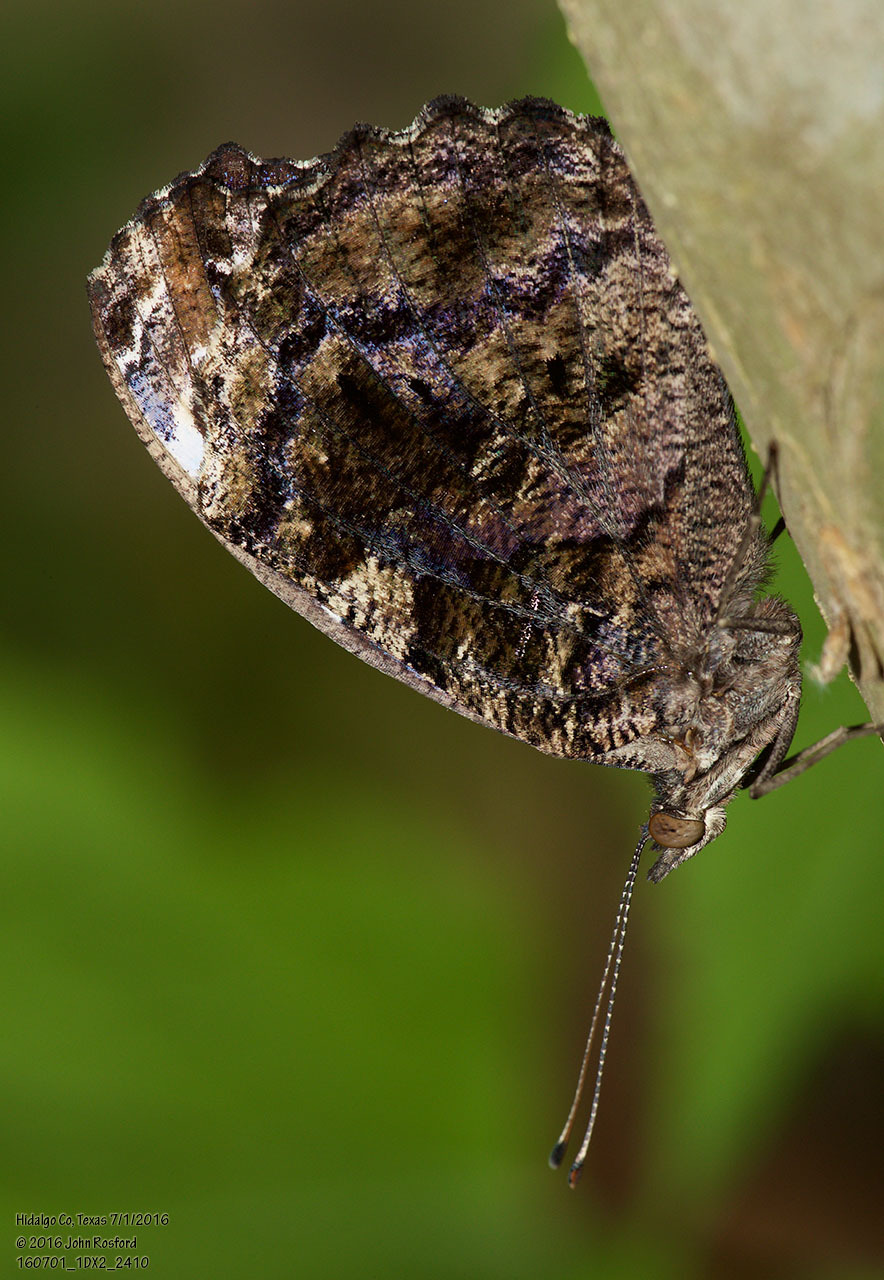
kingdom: Animalia
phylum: Arthropoda
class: Insecta
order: Lepidoptera
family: Nymphalidae
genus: Myscelia
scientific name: Myscelia ethusa
